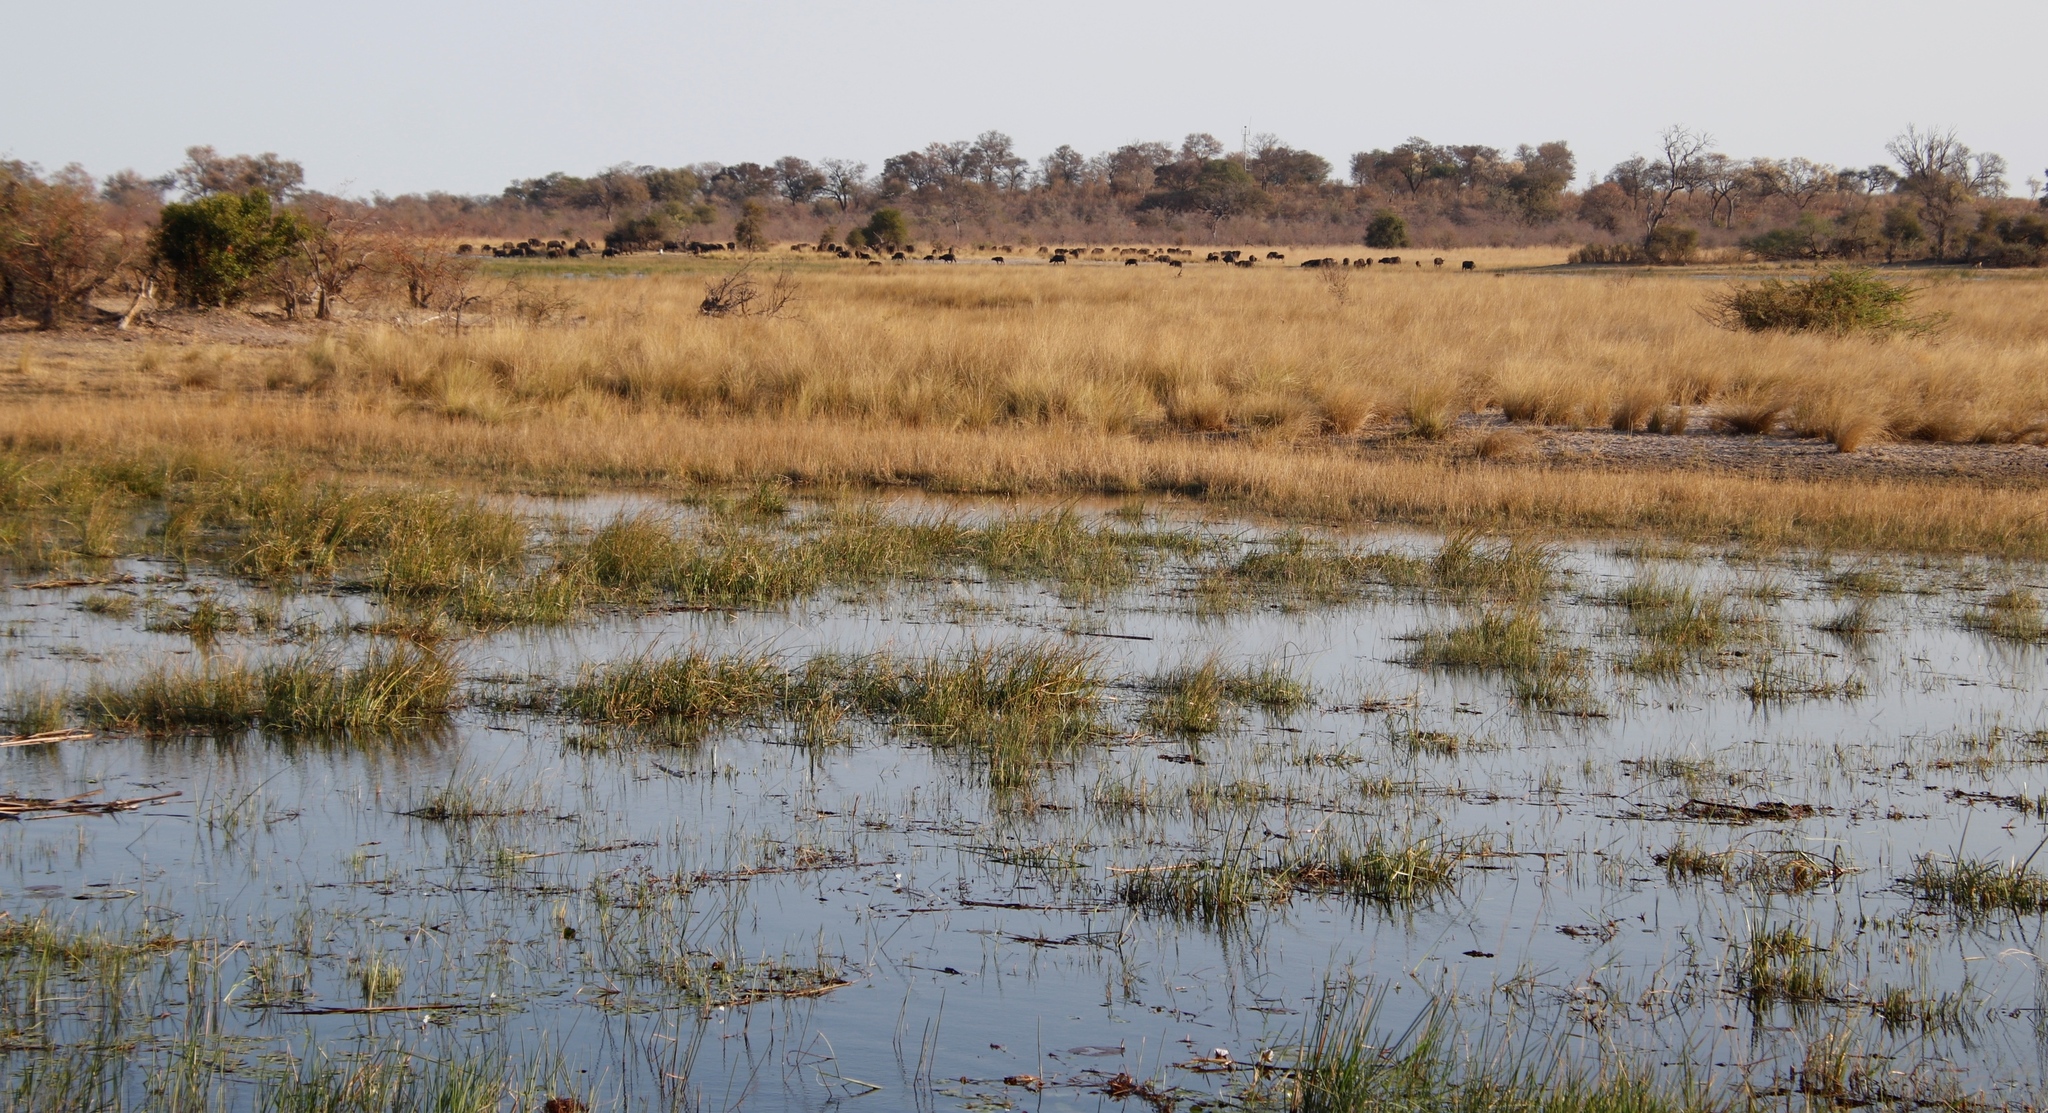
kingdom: Animalia
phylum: Chordata
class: Mammalia
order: Artiodactyla
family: Bovidae
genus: Syncerus
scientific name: Syncerus caffer
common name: African buffalo
